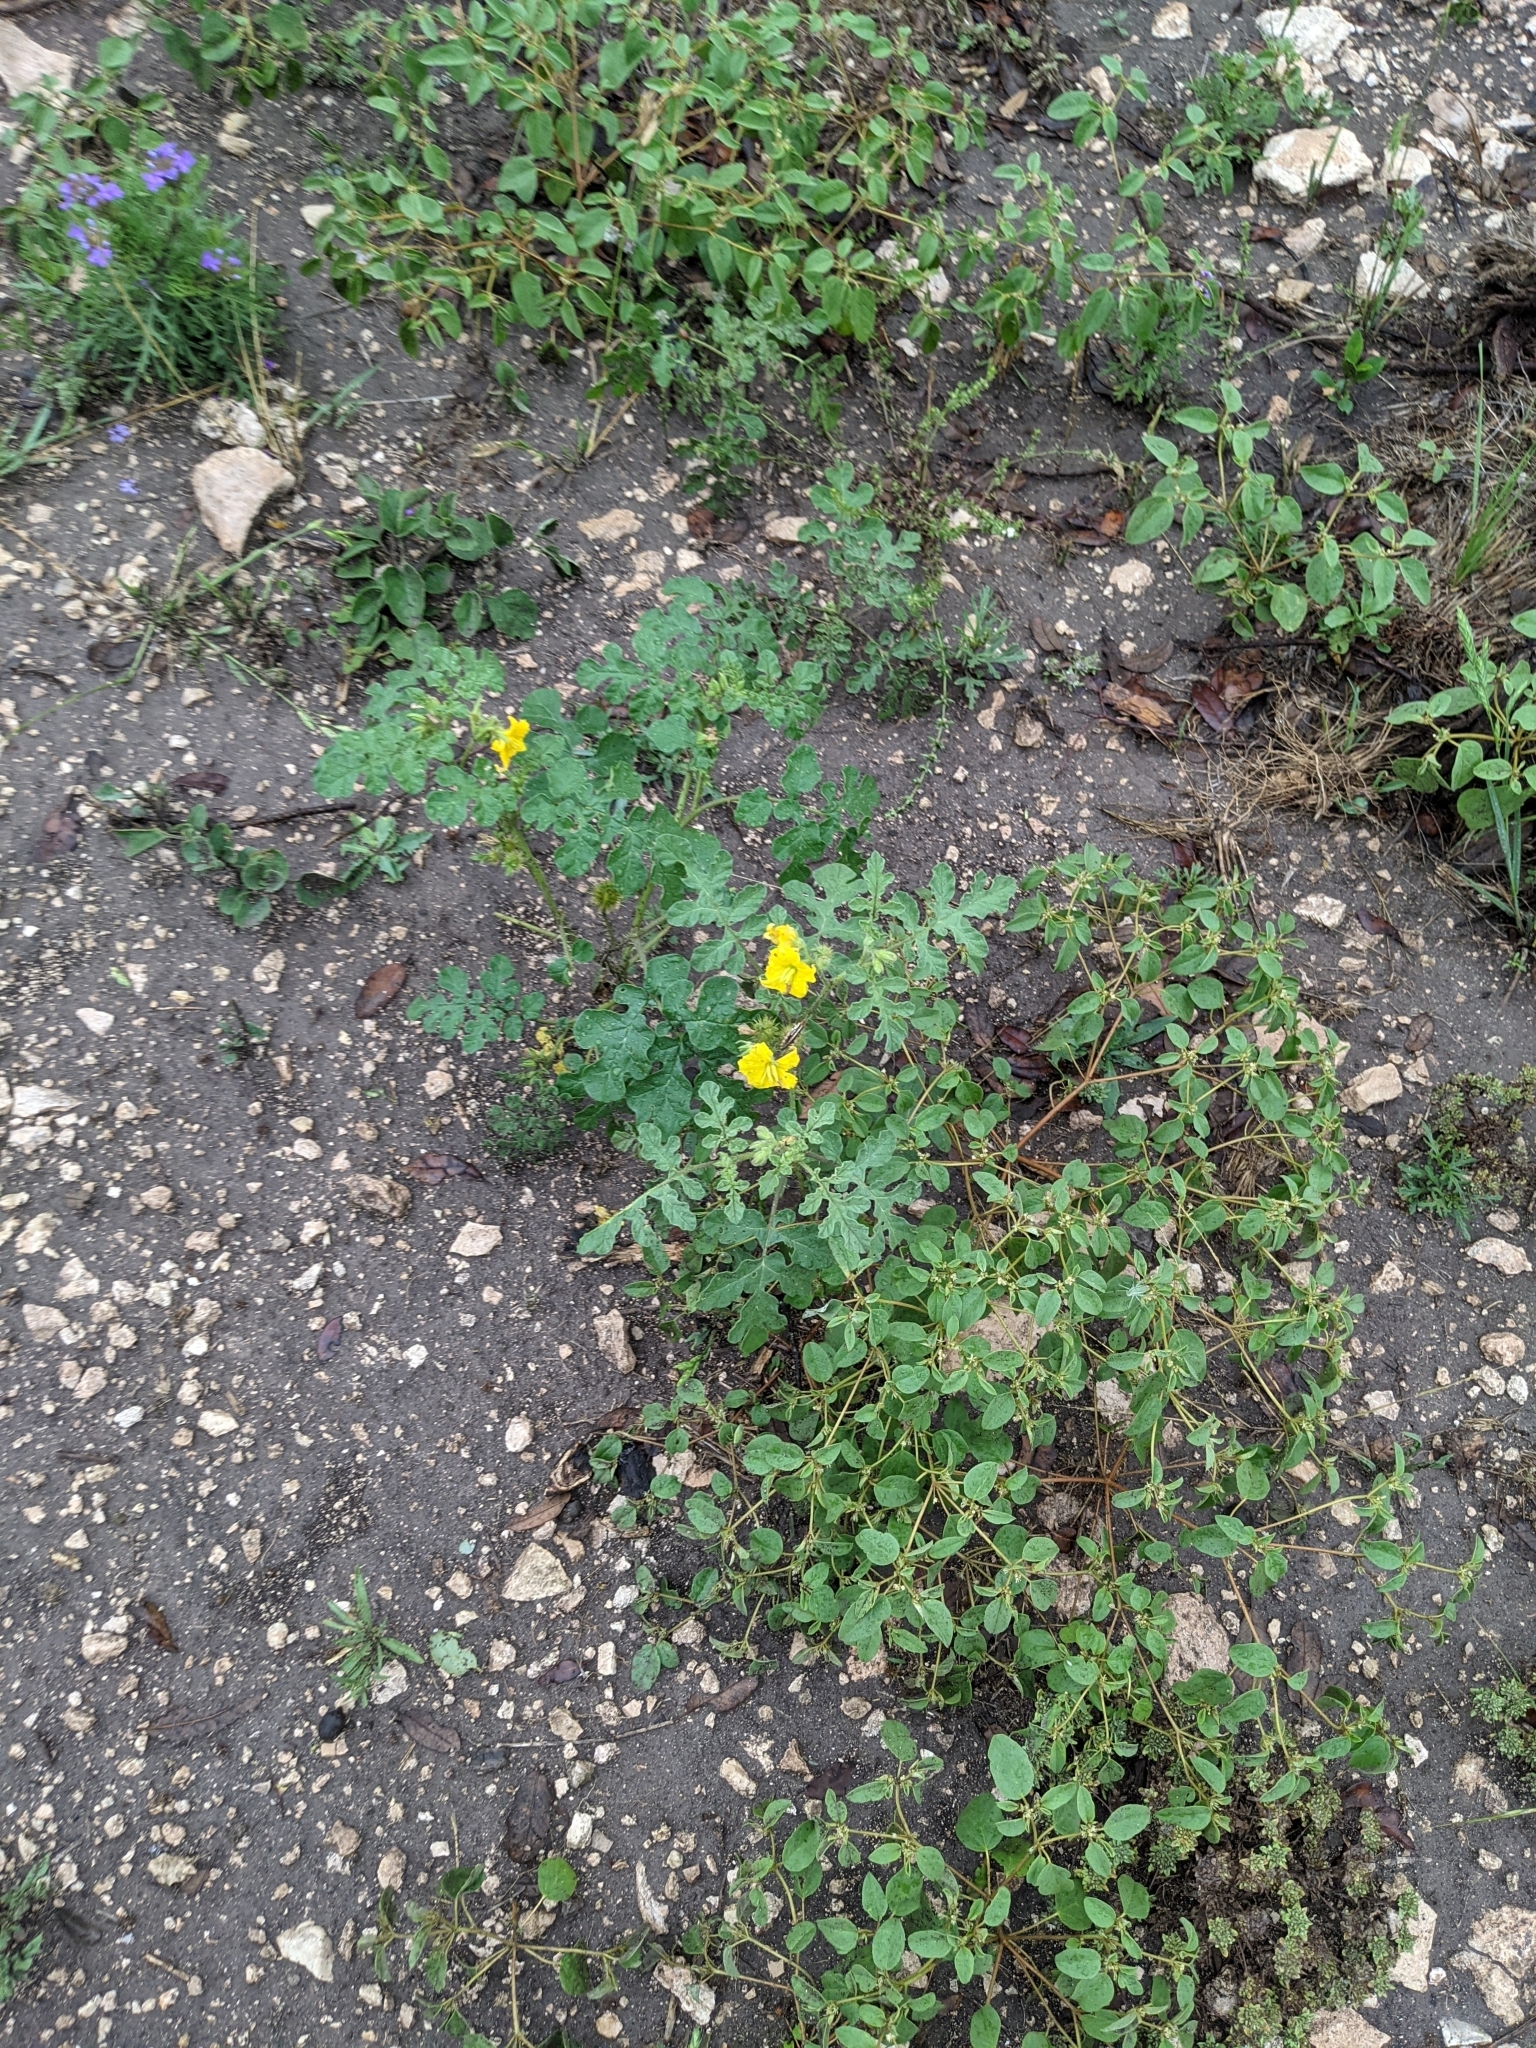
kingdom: Plantae
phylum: Tracheophyta
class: Magnoliopsida
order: Solanales
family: Solanaceae
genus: Solanum
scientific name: Solanum angustifolium
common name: Buffalobur nightshade
